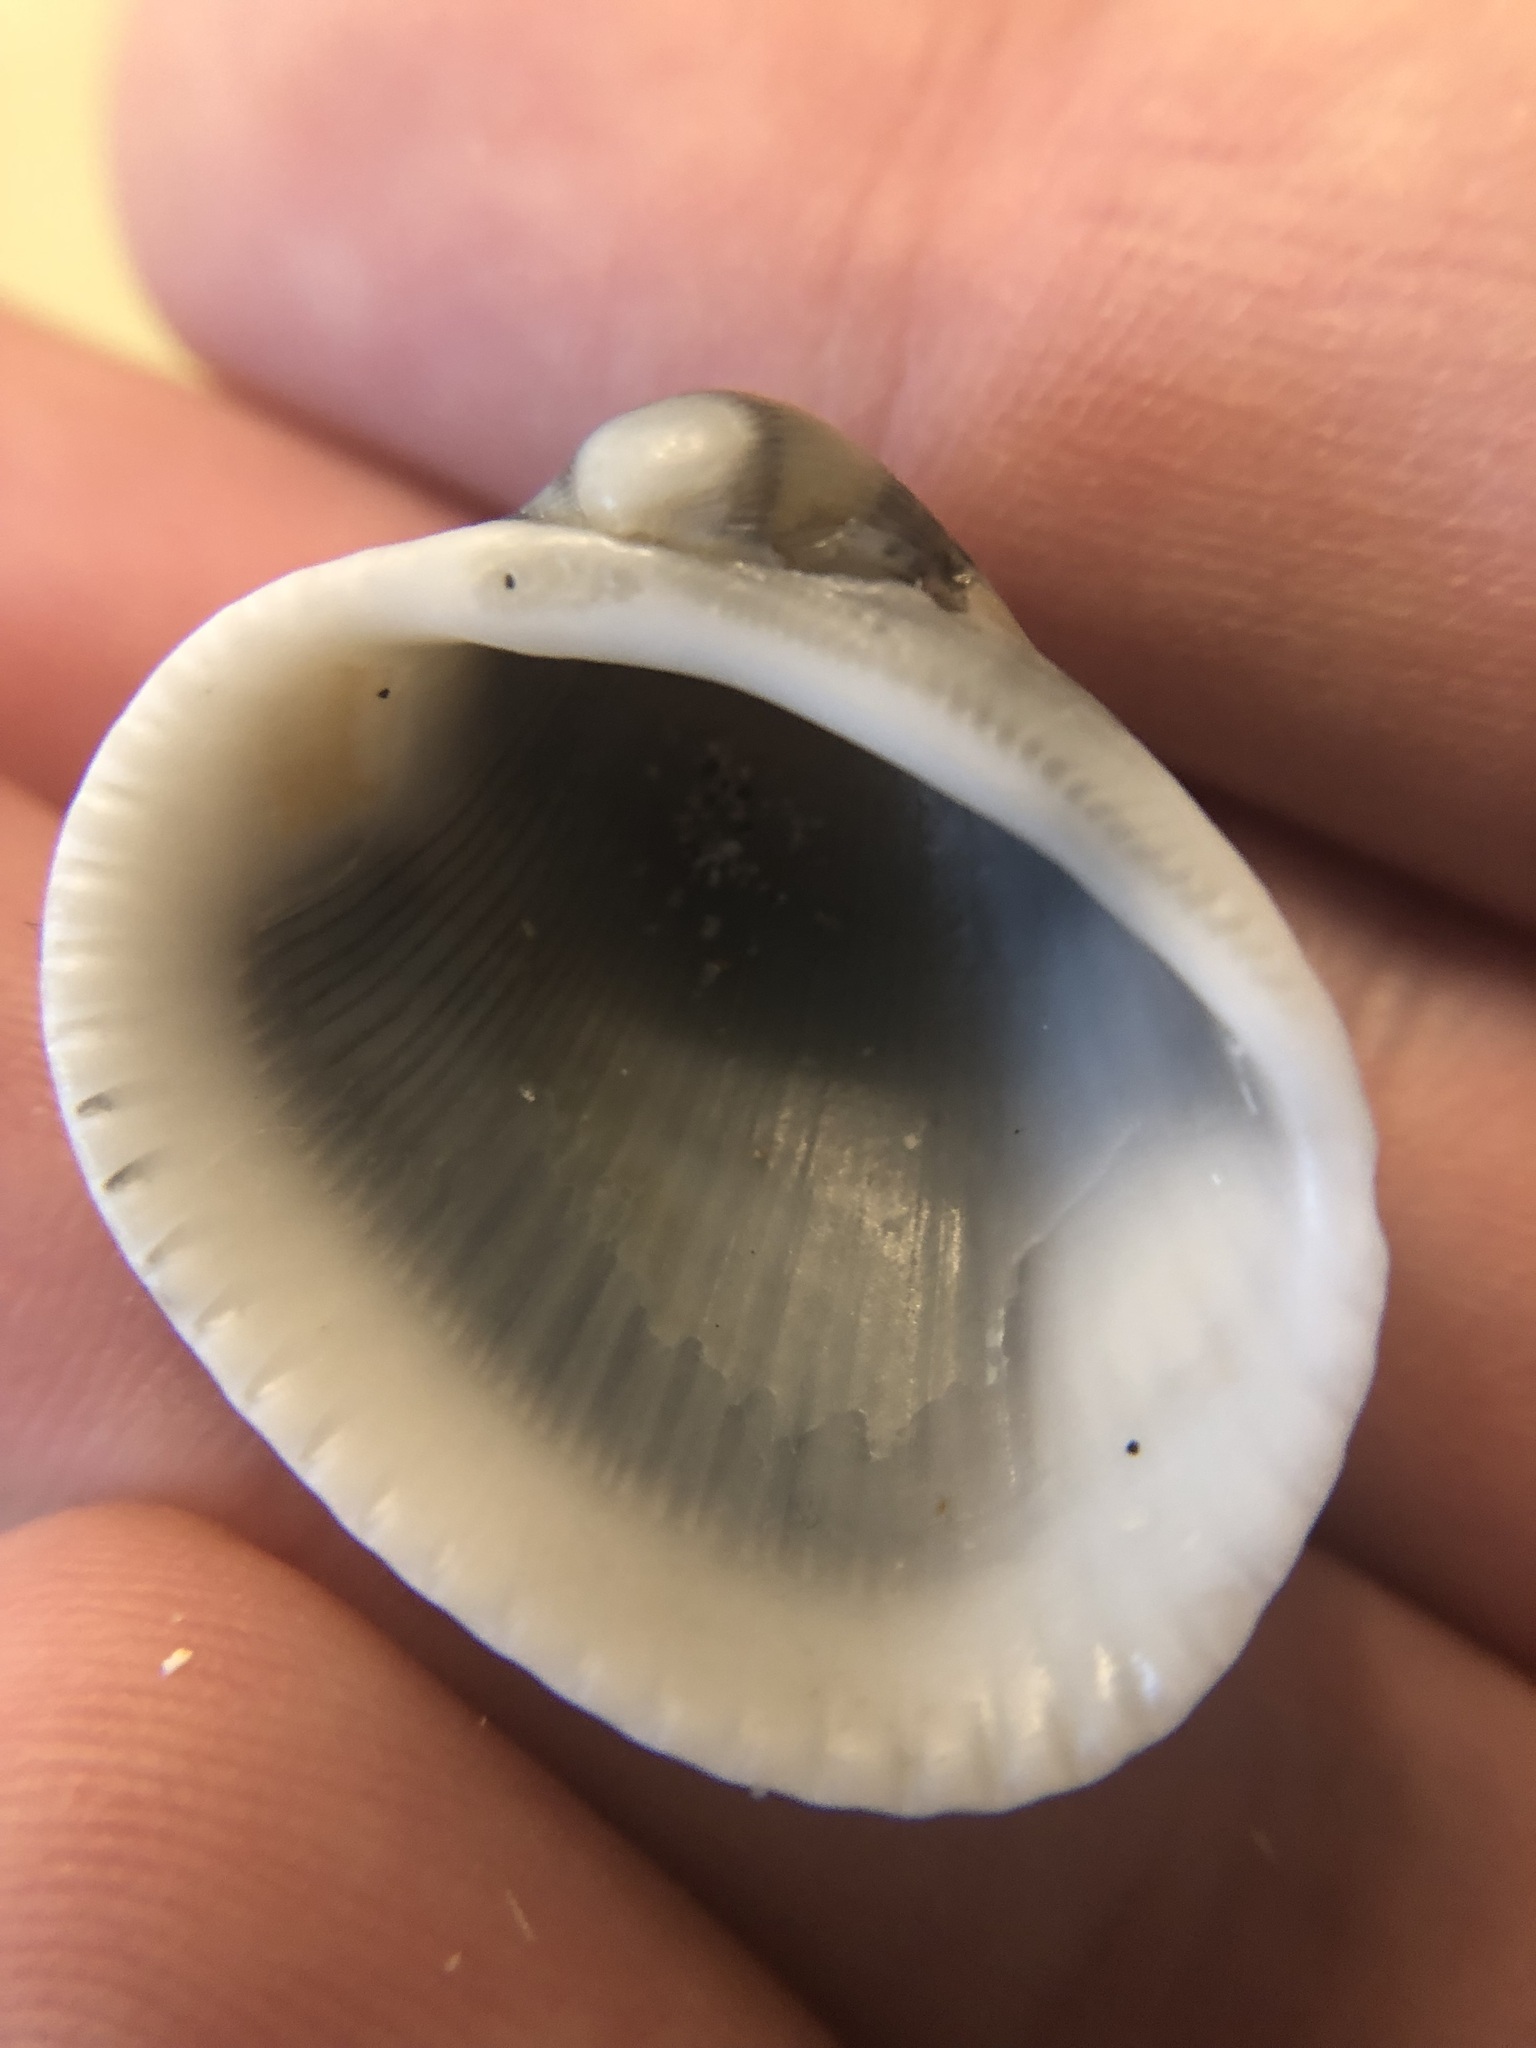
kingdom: Animalia
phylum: Mollusca
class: Bivalvia
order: Arcida
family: Arcidae
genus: Lunarca
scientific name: Lunarca ovalis
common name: Blood ark
